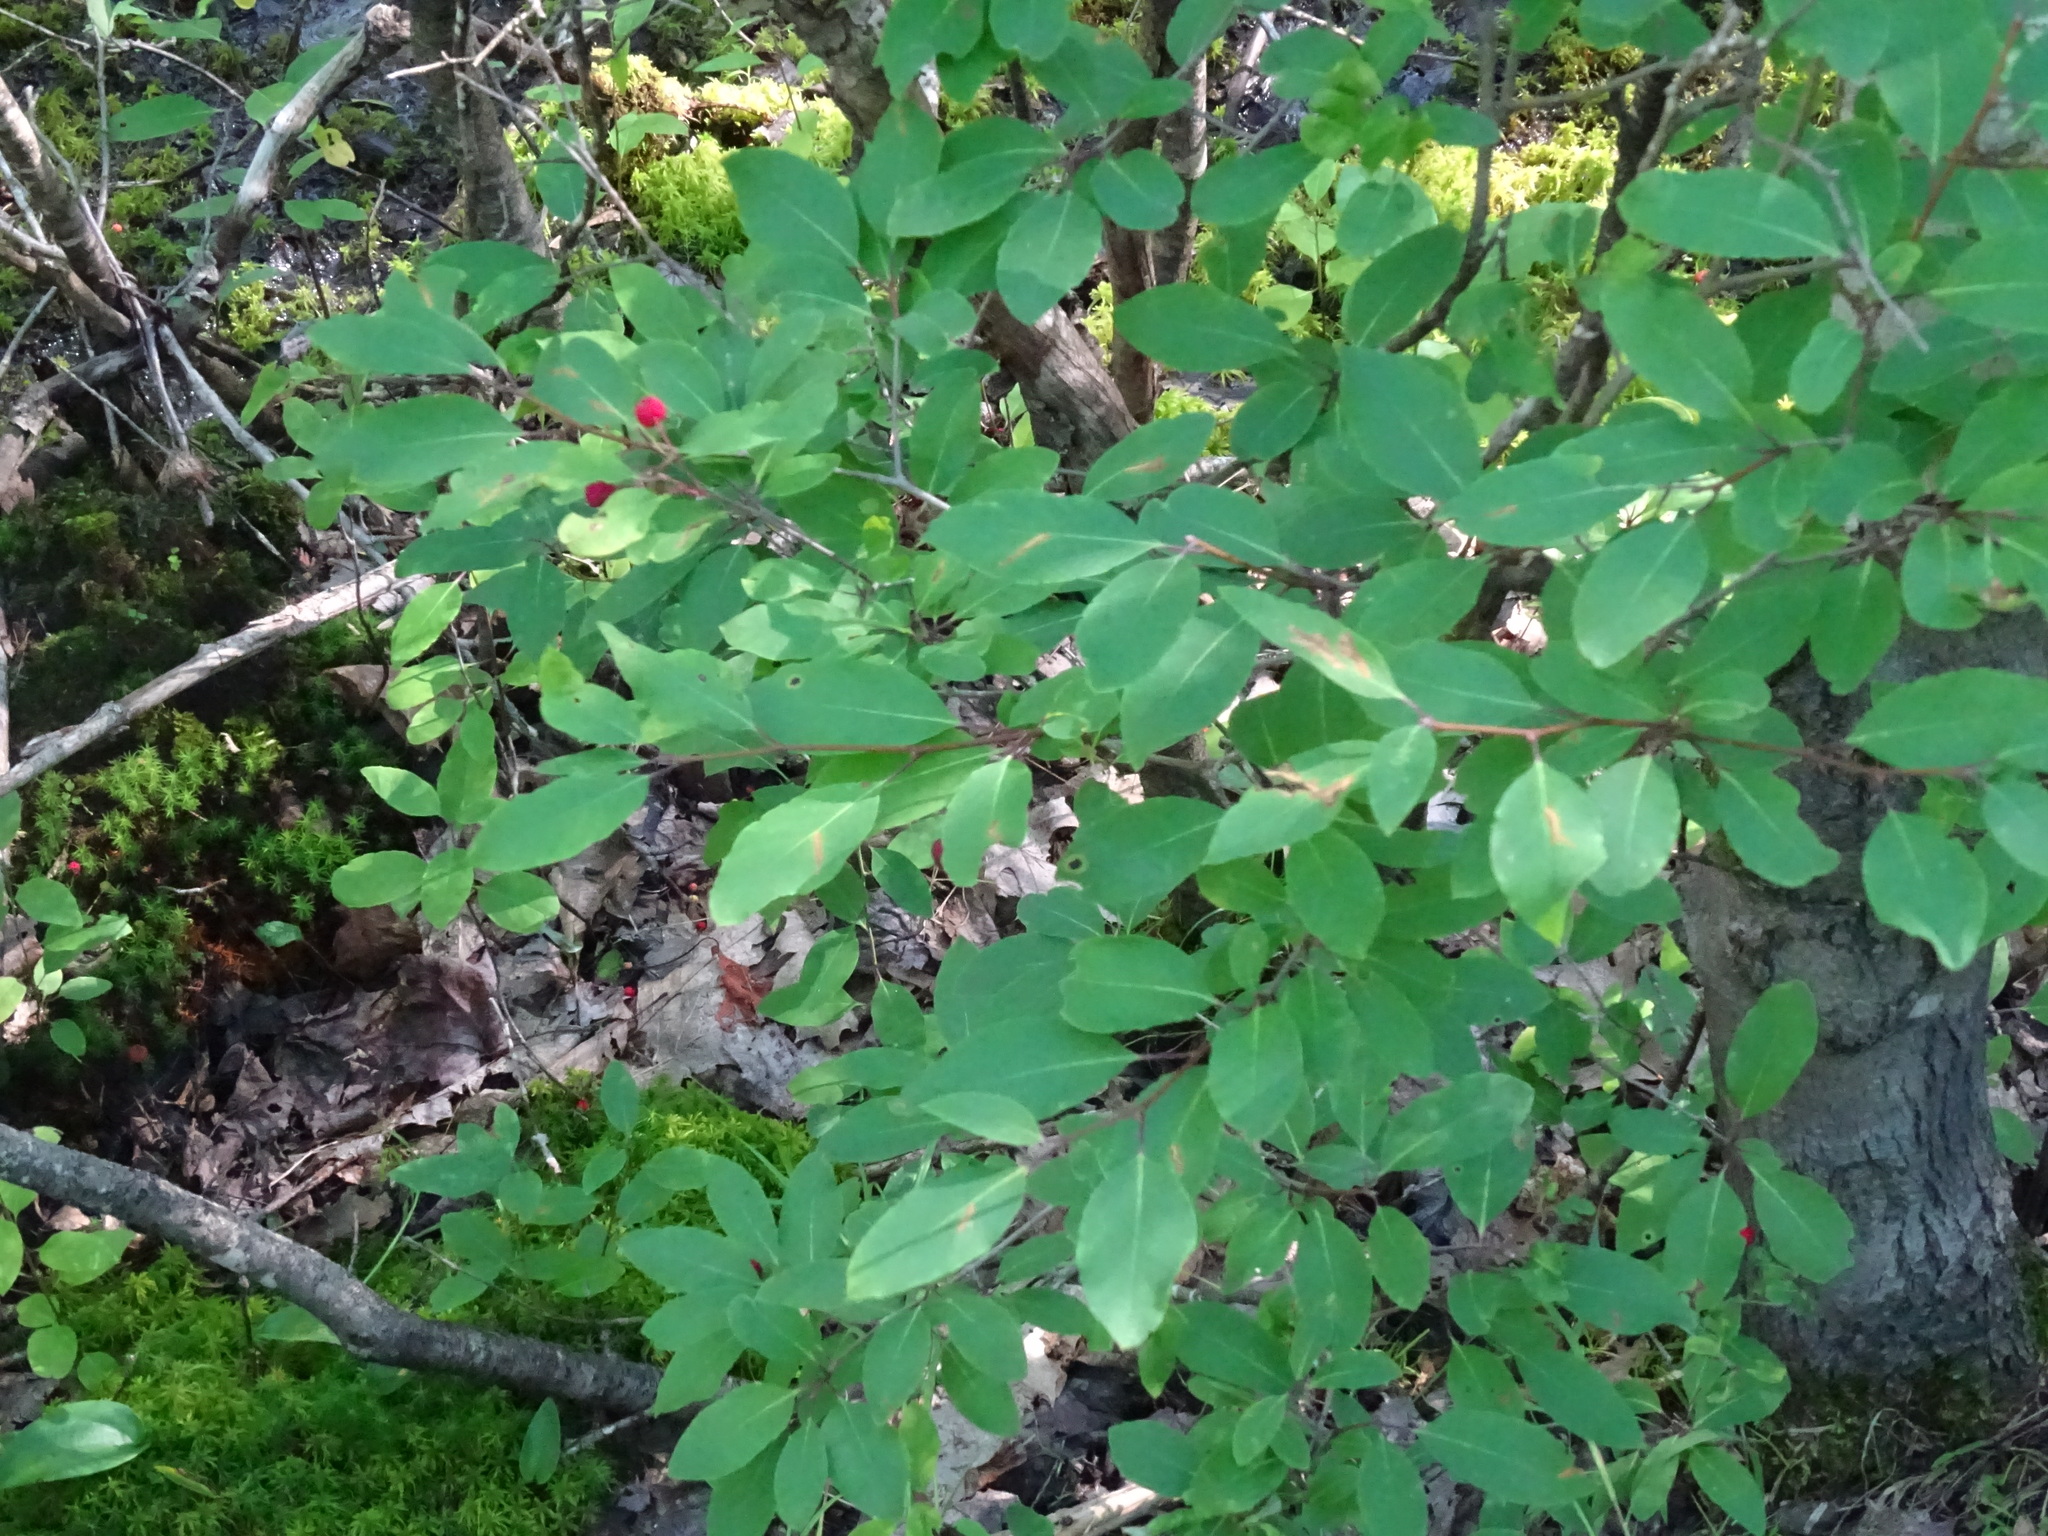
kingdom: Plantae
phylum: Tracheophyta
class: Magnoliopsida
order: Aquifoliales
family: Aquifoliaceae
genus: Ilex
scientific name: Ilex mucronata
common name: Catberry
